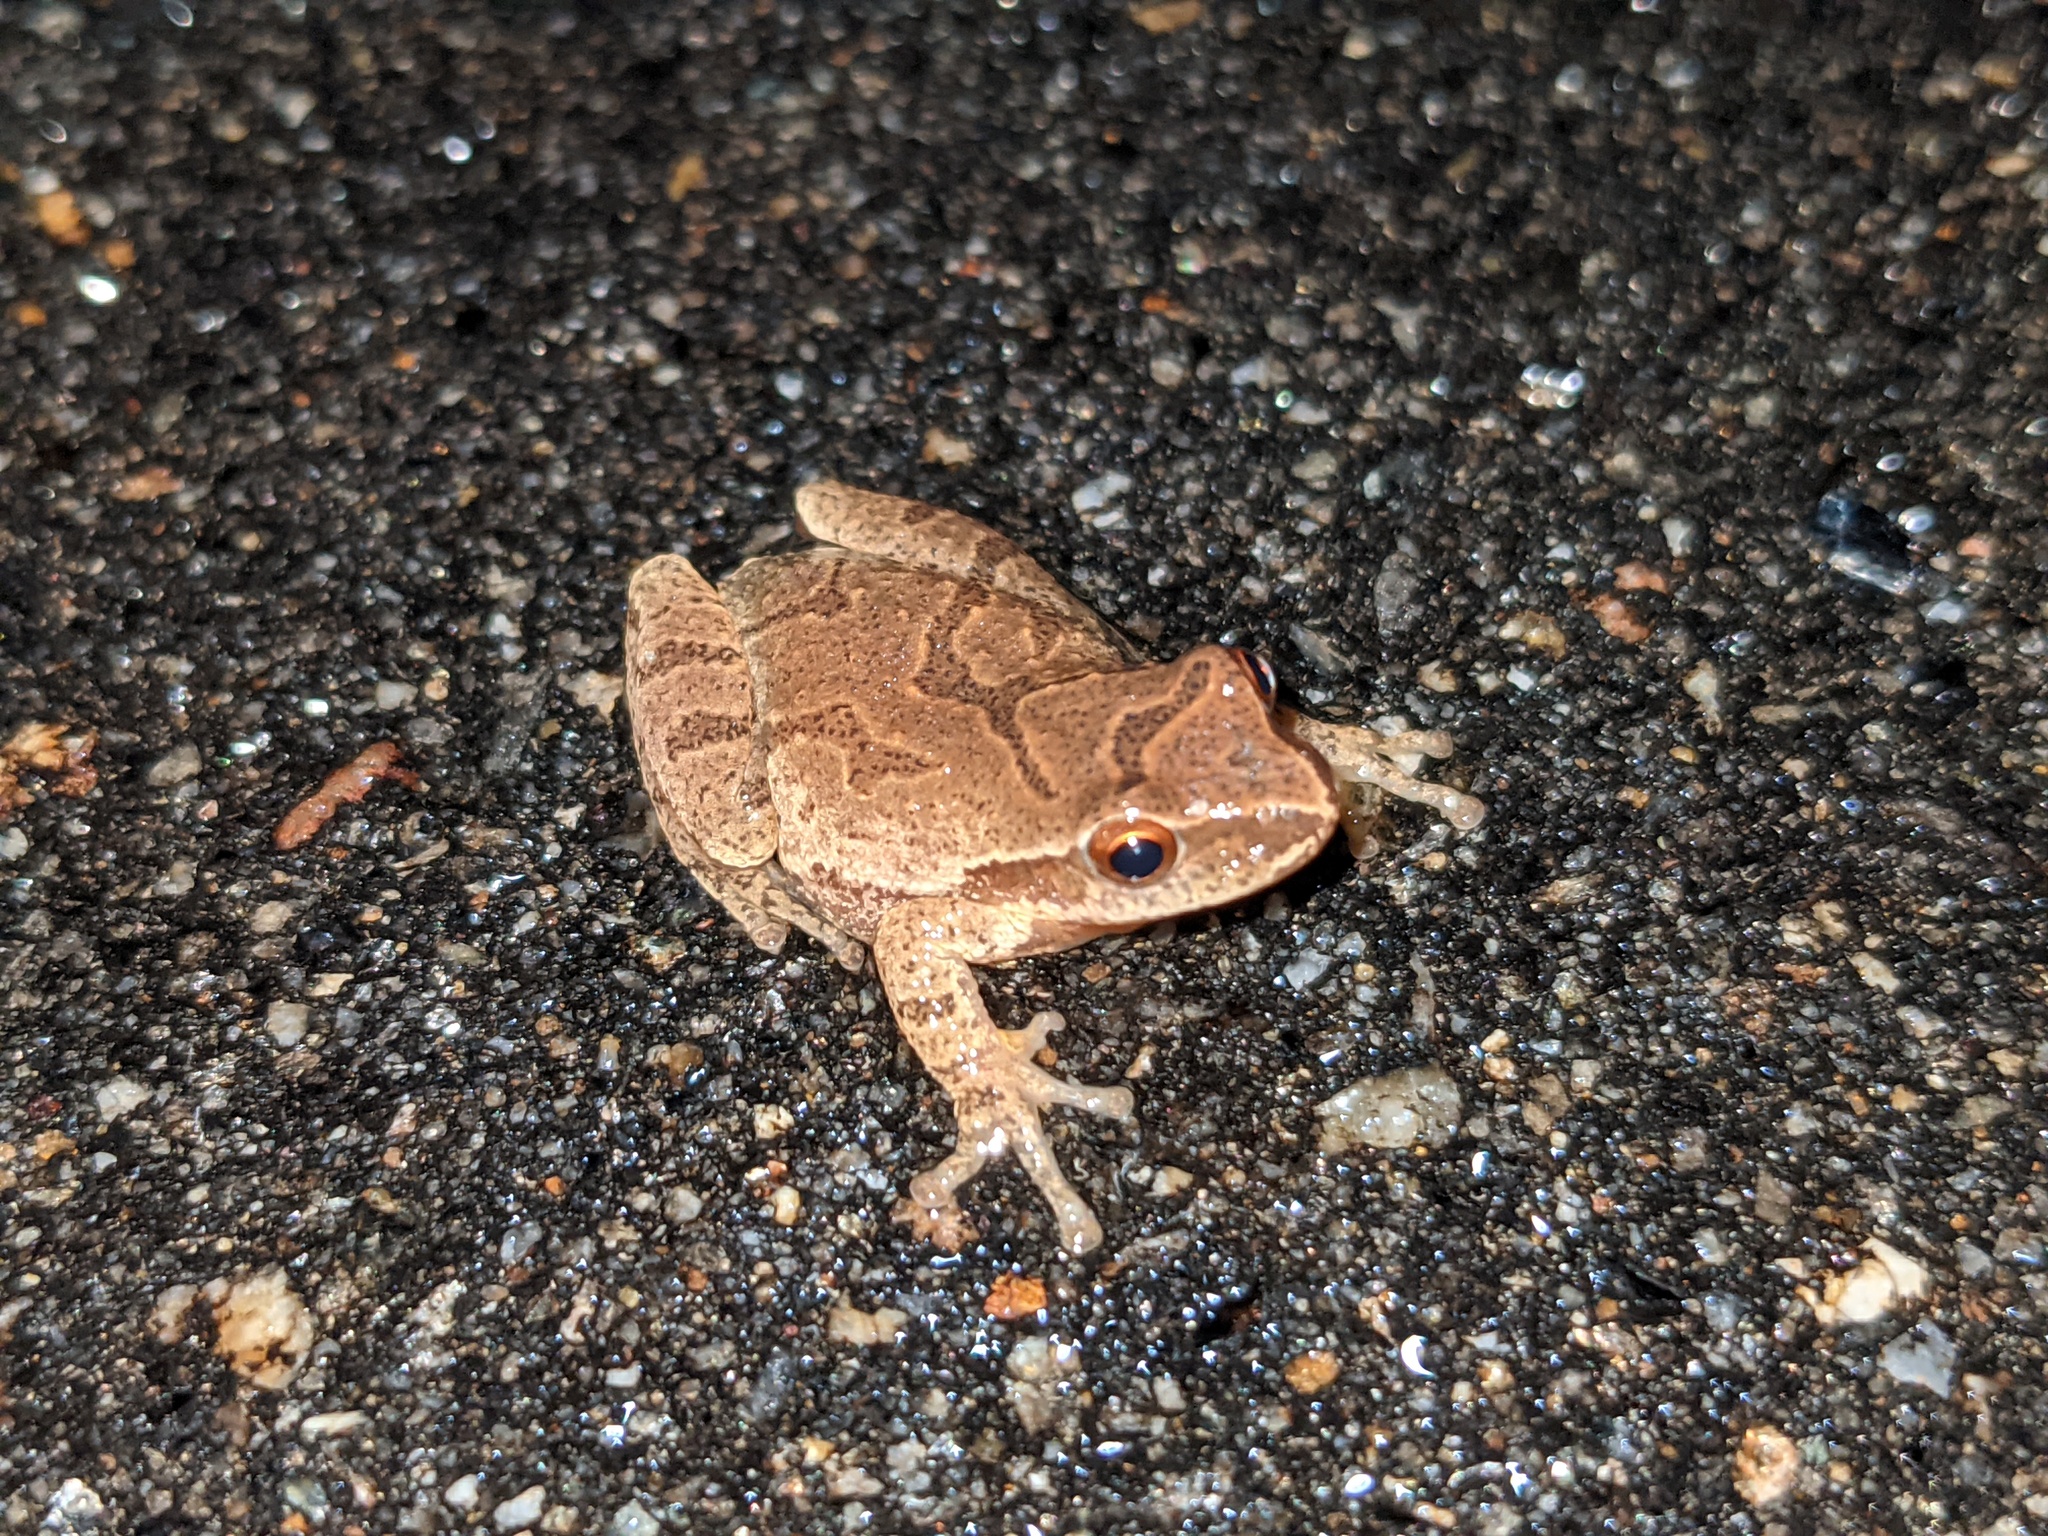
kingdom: Animalia
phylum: Chordata
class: Amphibia
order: Anura
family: Hylidae
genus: Pseudacris
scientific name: Pseudacris crucifer
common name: Spring peeper
